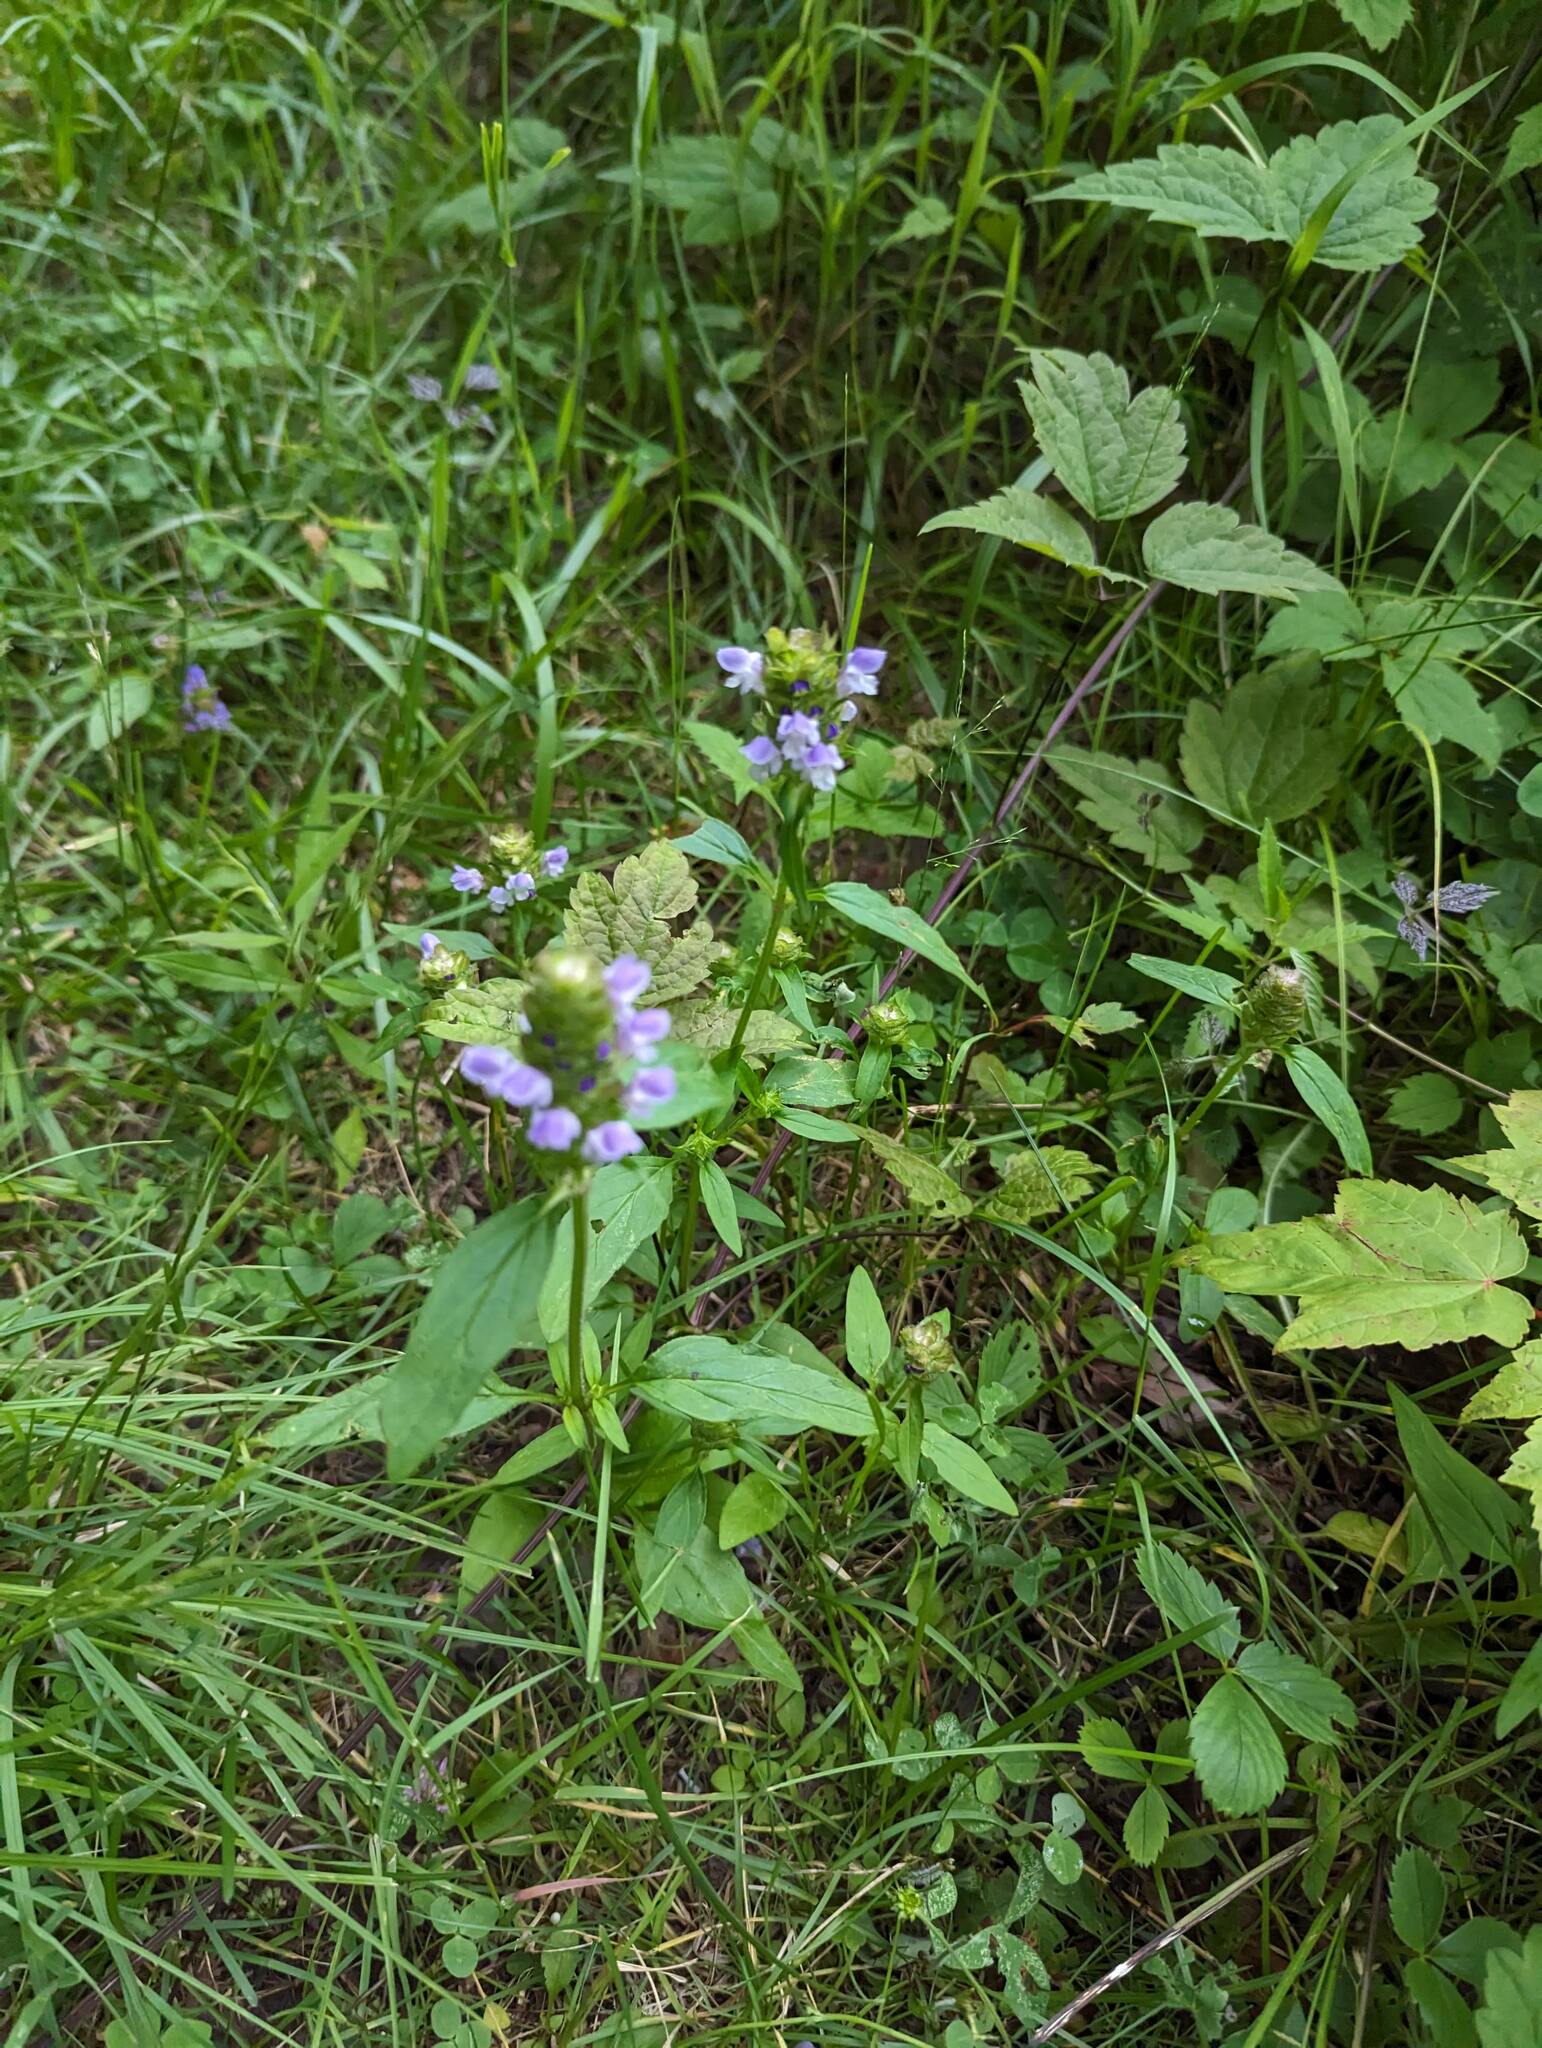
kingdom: Plantae
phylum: Tracheophyta
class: Magnoliopsida
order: Lamiales
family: Lamiaceae
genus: Prunella
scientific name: Prunella vulgaris
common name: Heal-all
